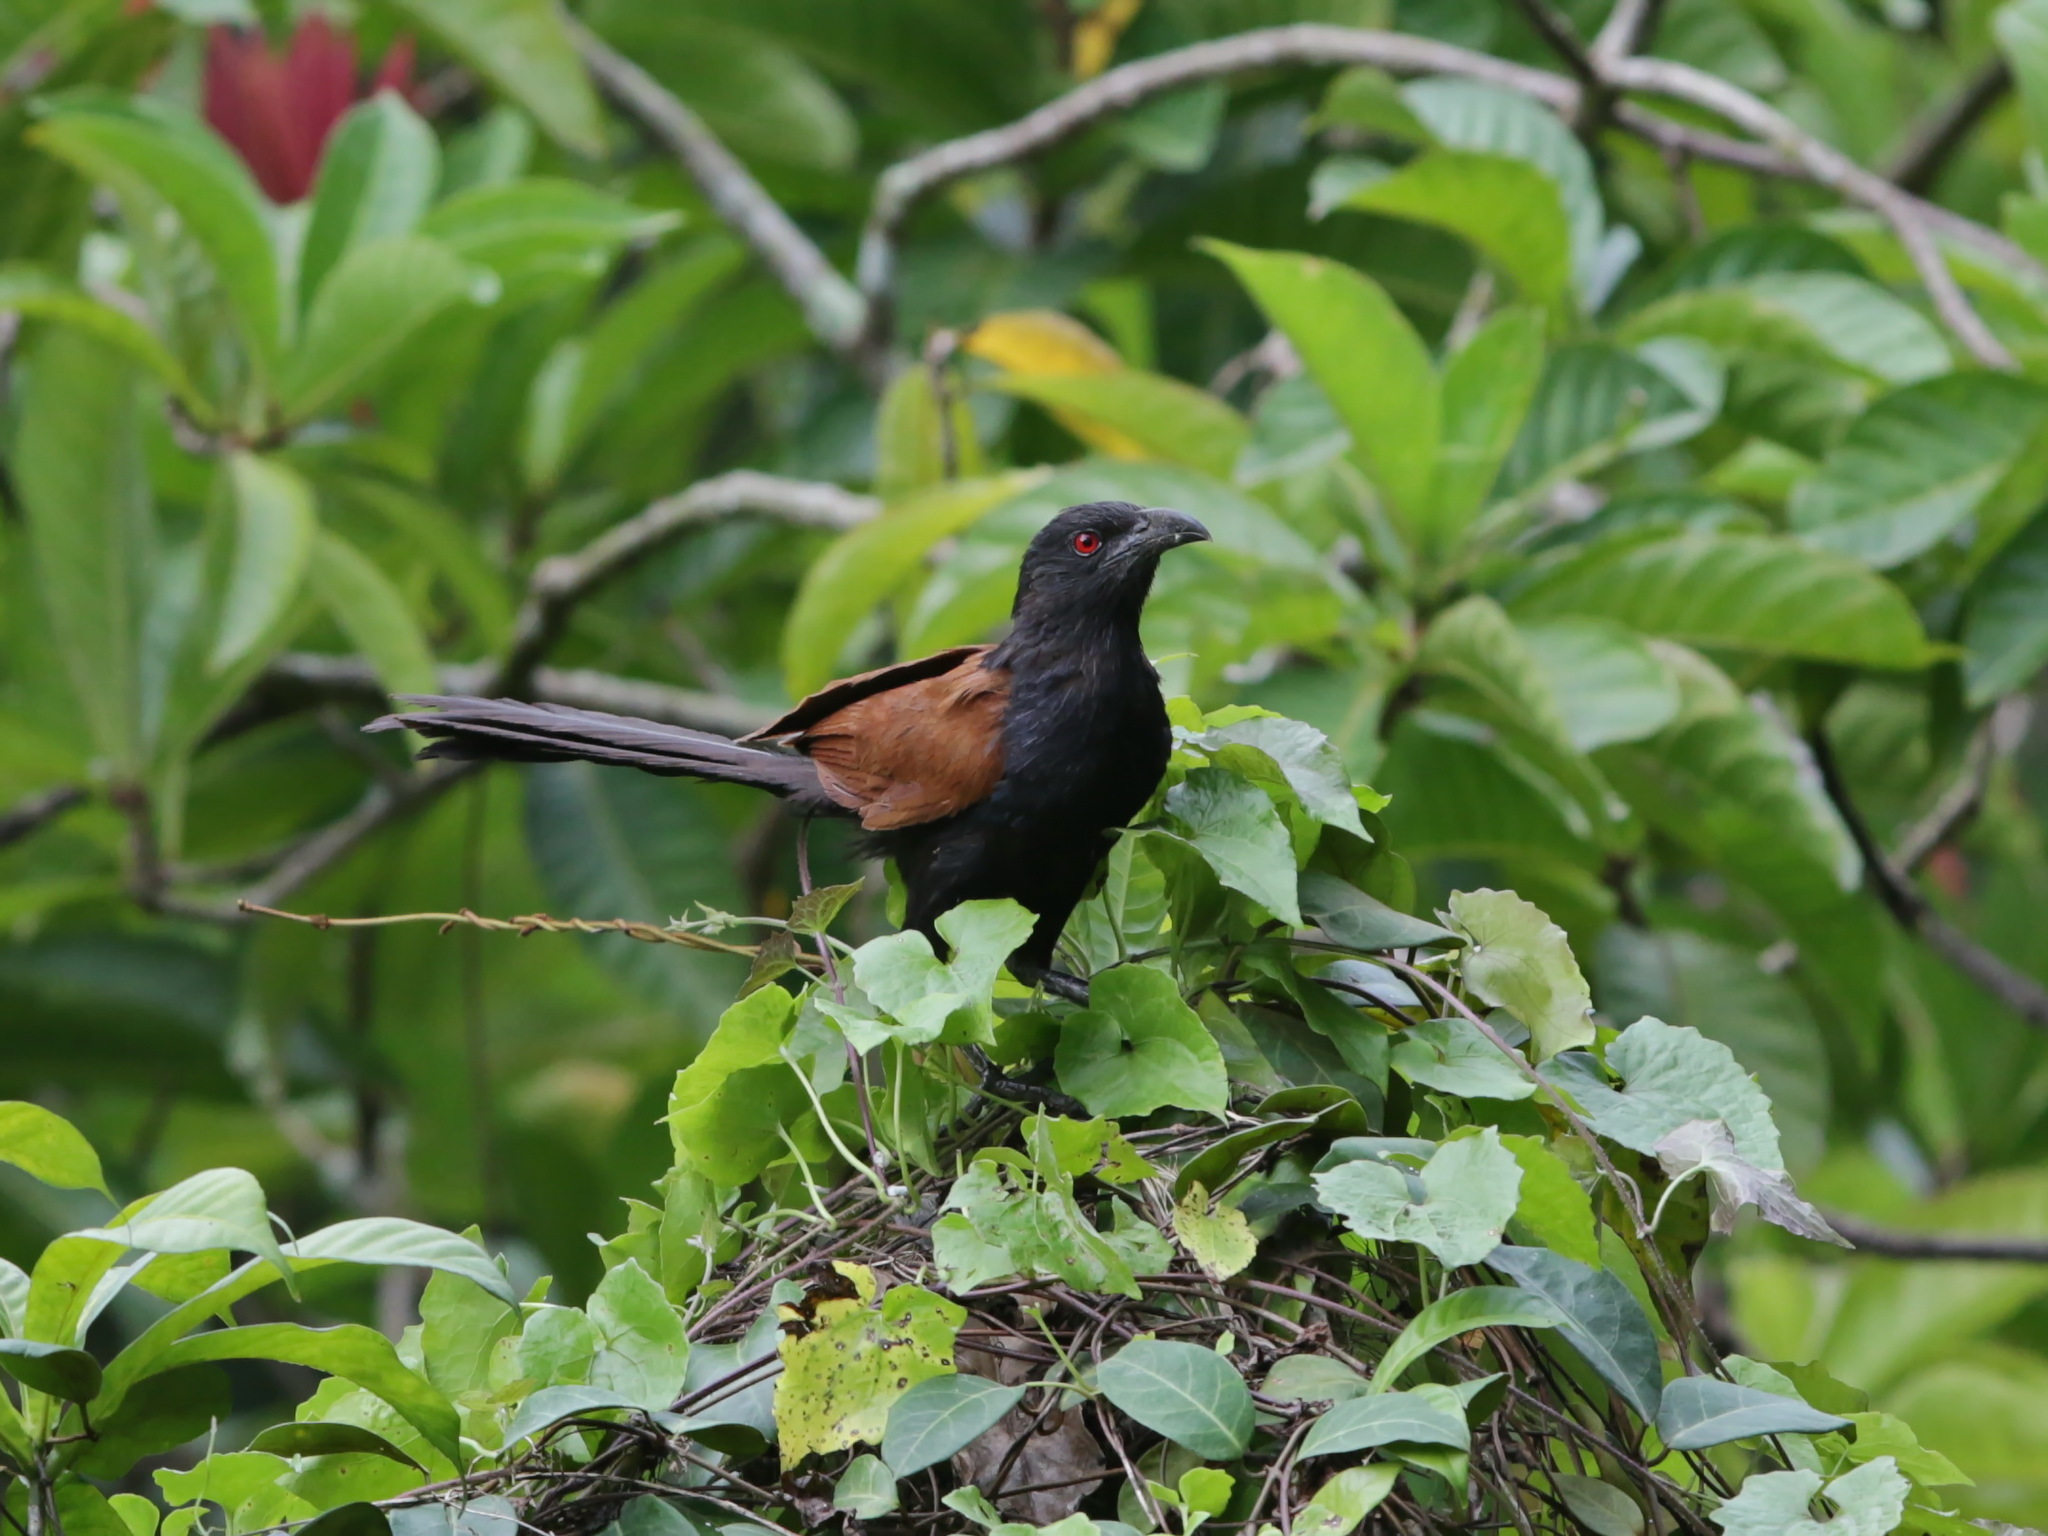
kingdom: Animalia
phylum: Chordata
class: Aves
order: Cuculiformes
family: Cuculidae
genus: Centropus
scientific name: Centropus sinensis
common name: Greater coucal
